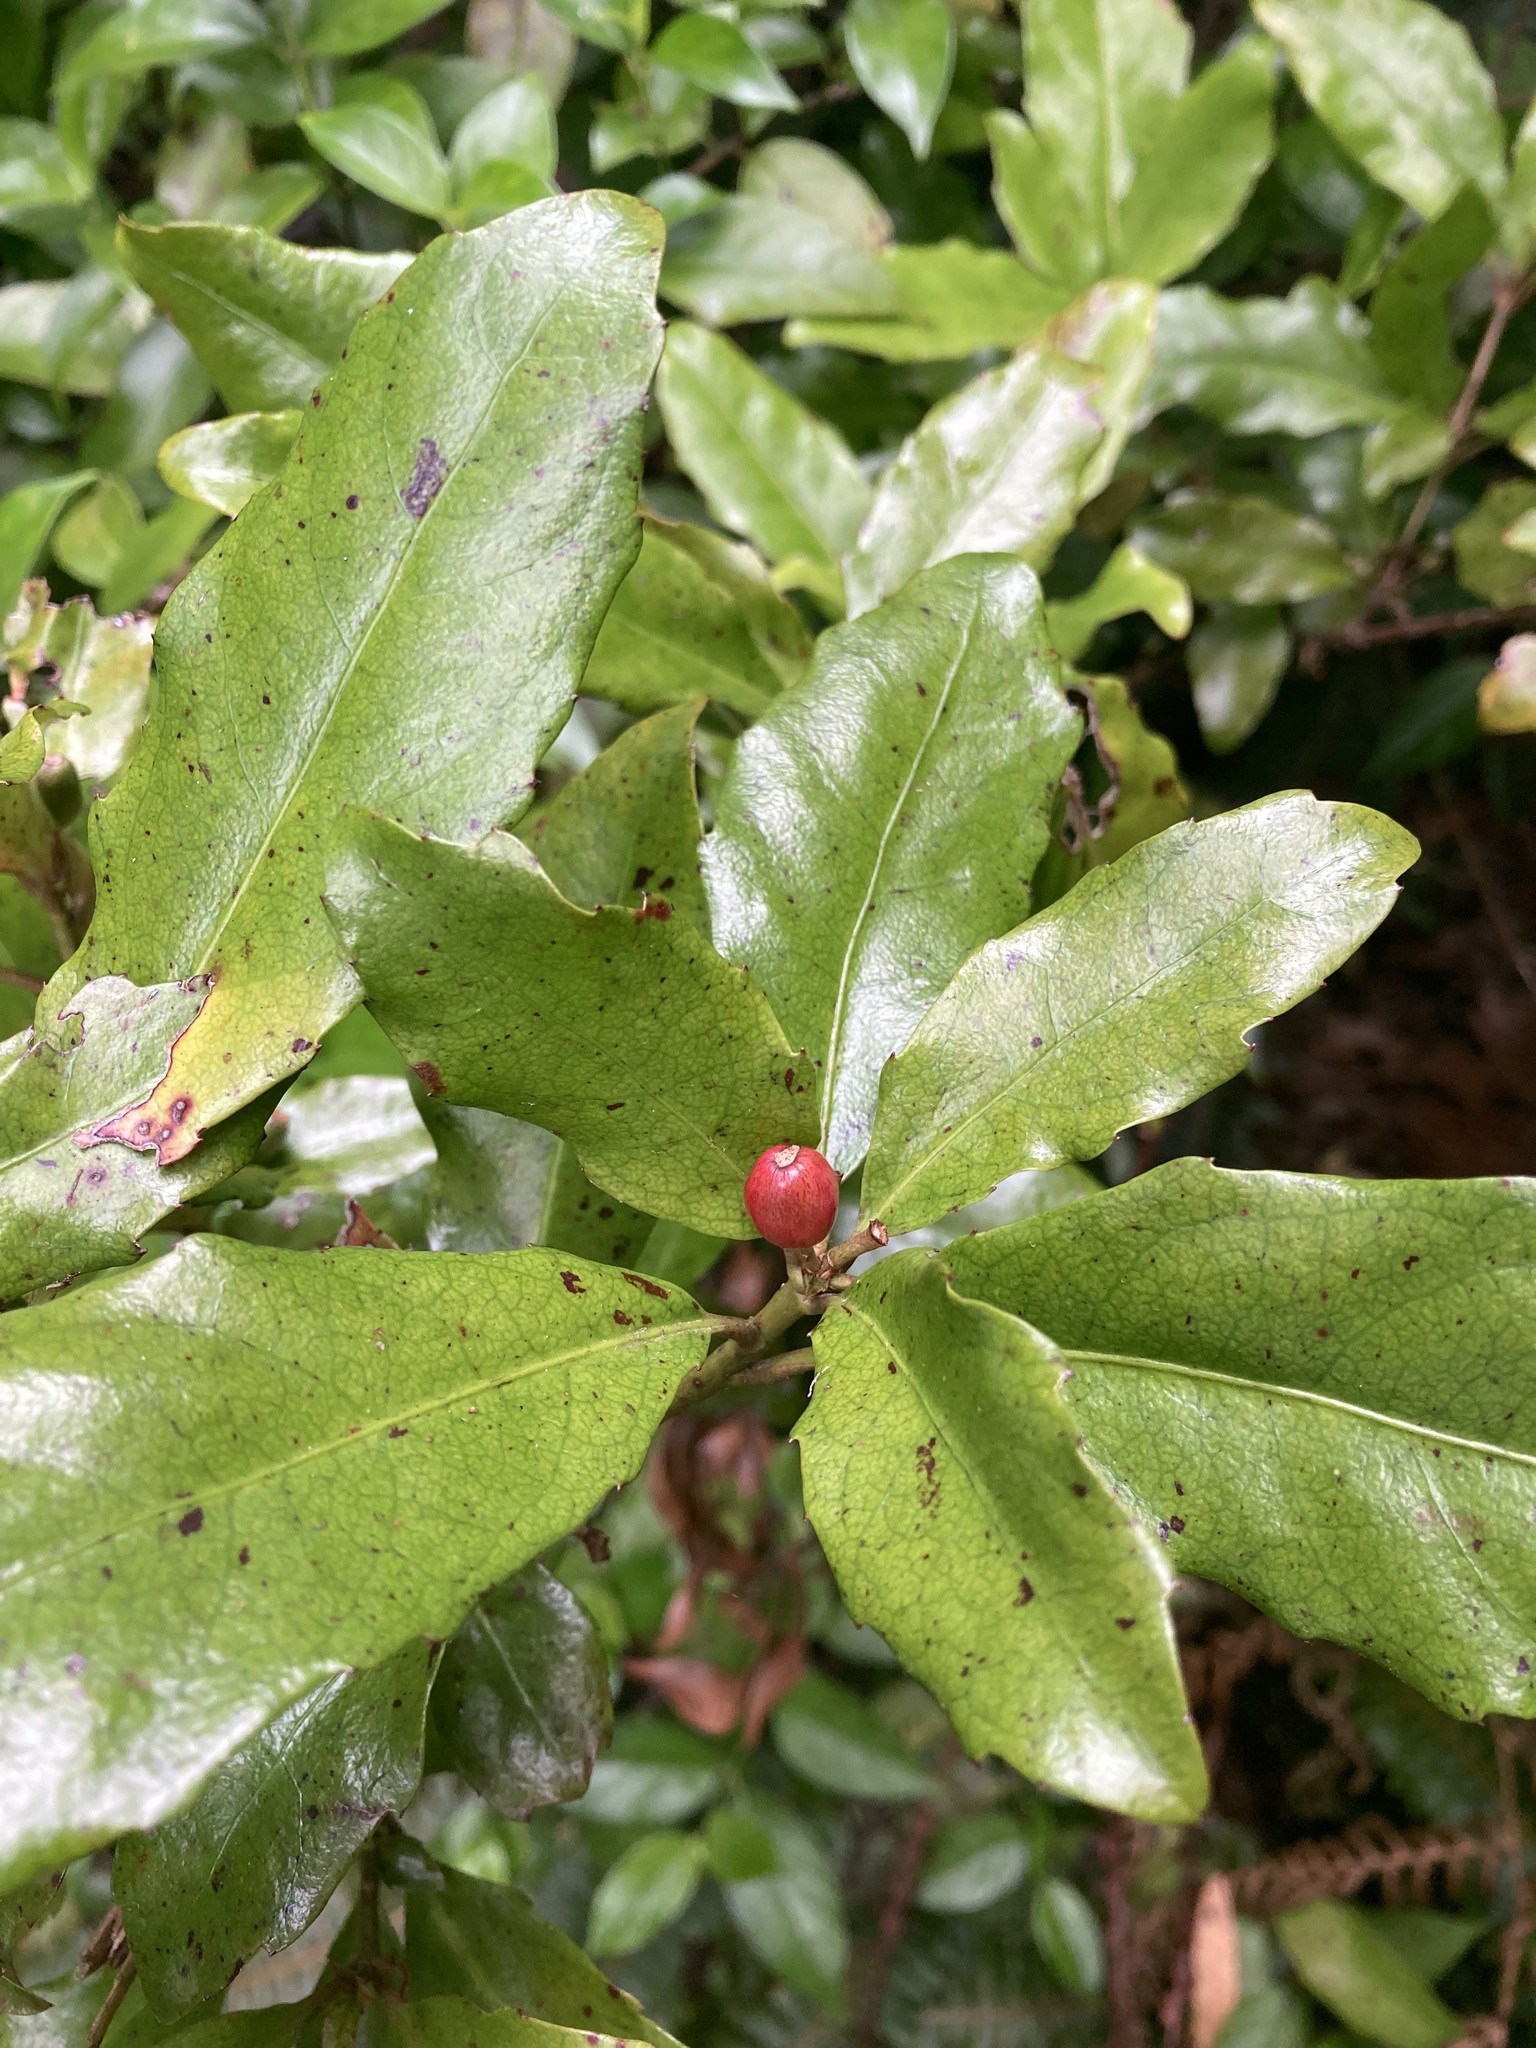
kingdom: Plantae
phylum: Tracheophyta
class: Magnoliopsida
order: Asterales
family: Alseuosmiaceae
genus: Alseuosmia
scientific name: Alseuosmia macrophylla
